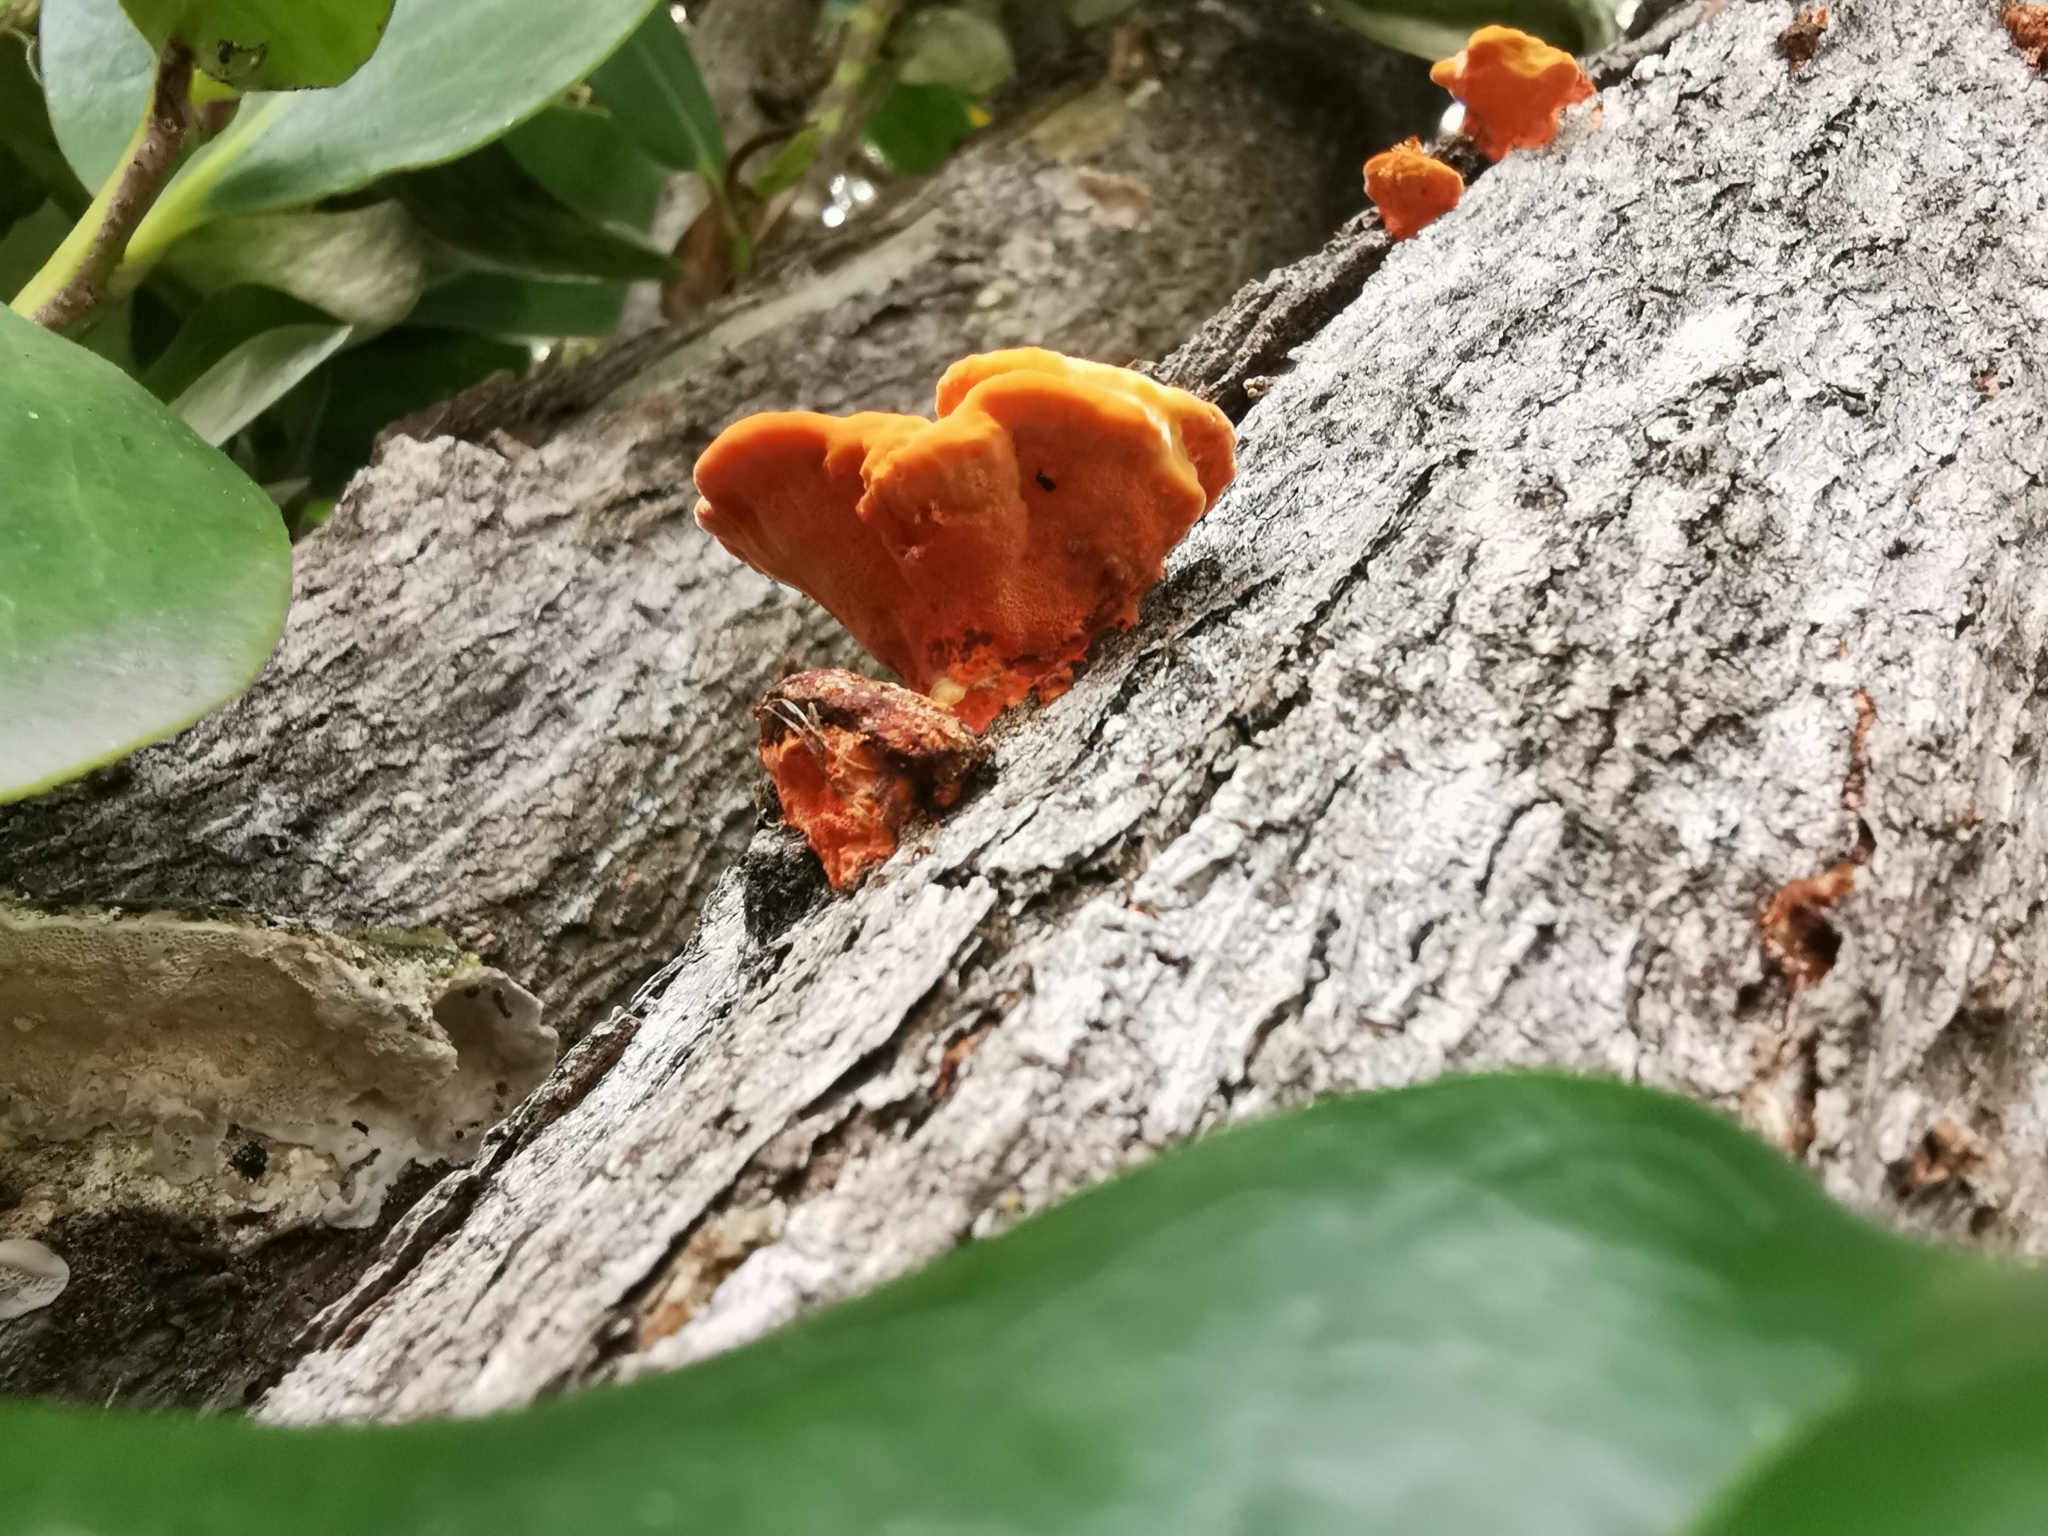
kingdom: Fungi
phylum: Basidiomycota
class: Agaricomycetes
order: Polyporales
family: Polyporaceae
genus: Trametes
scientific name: Trametes coccinea
